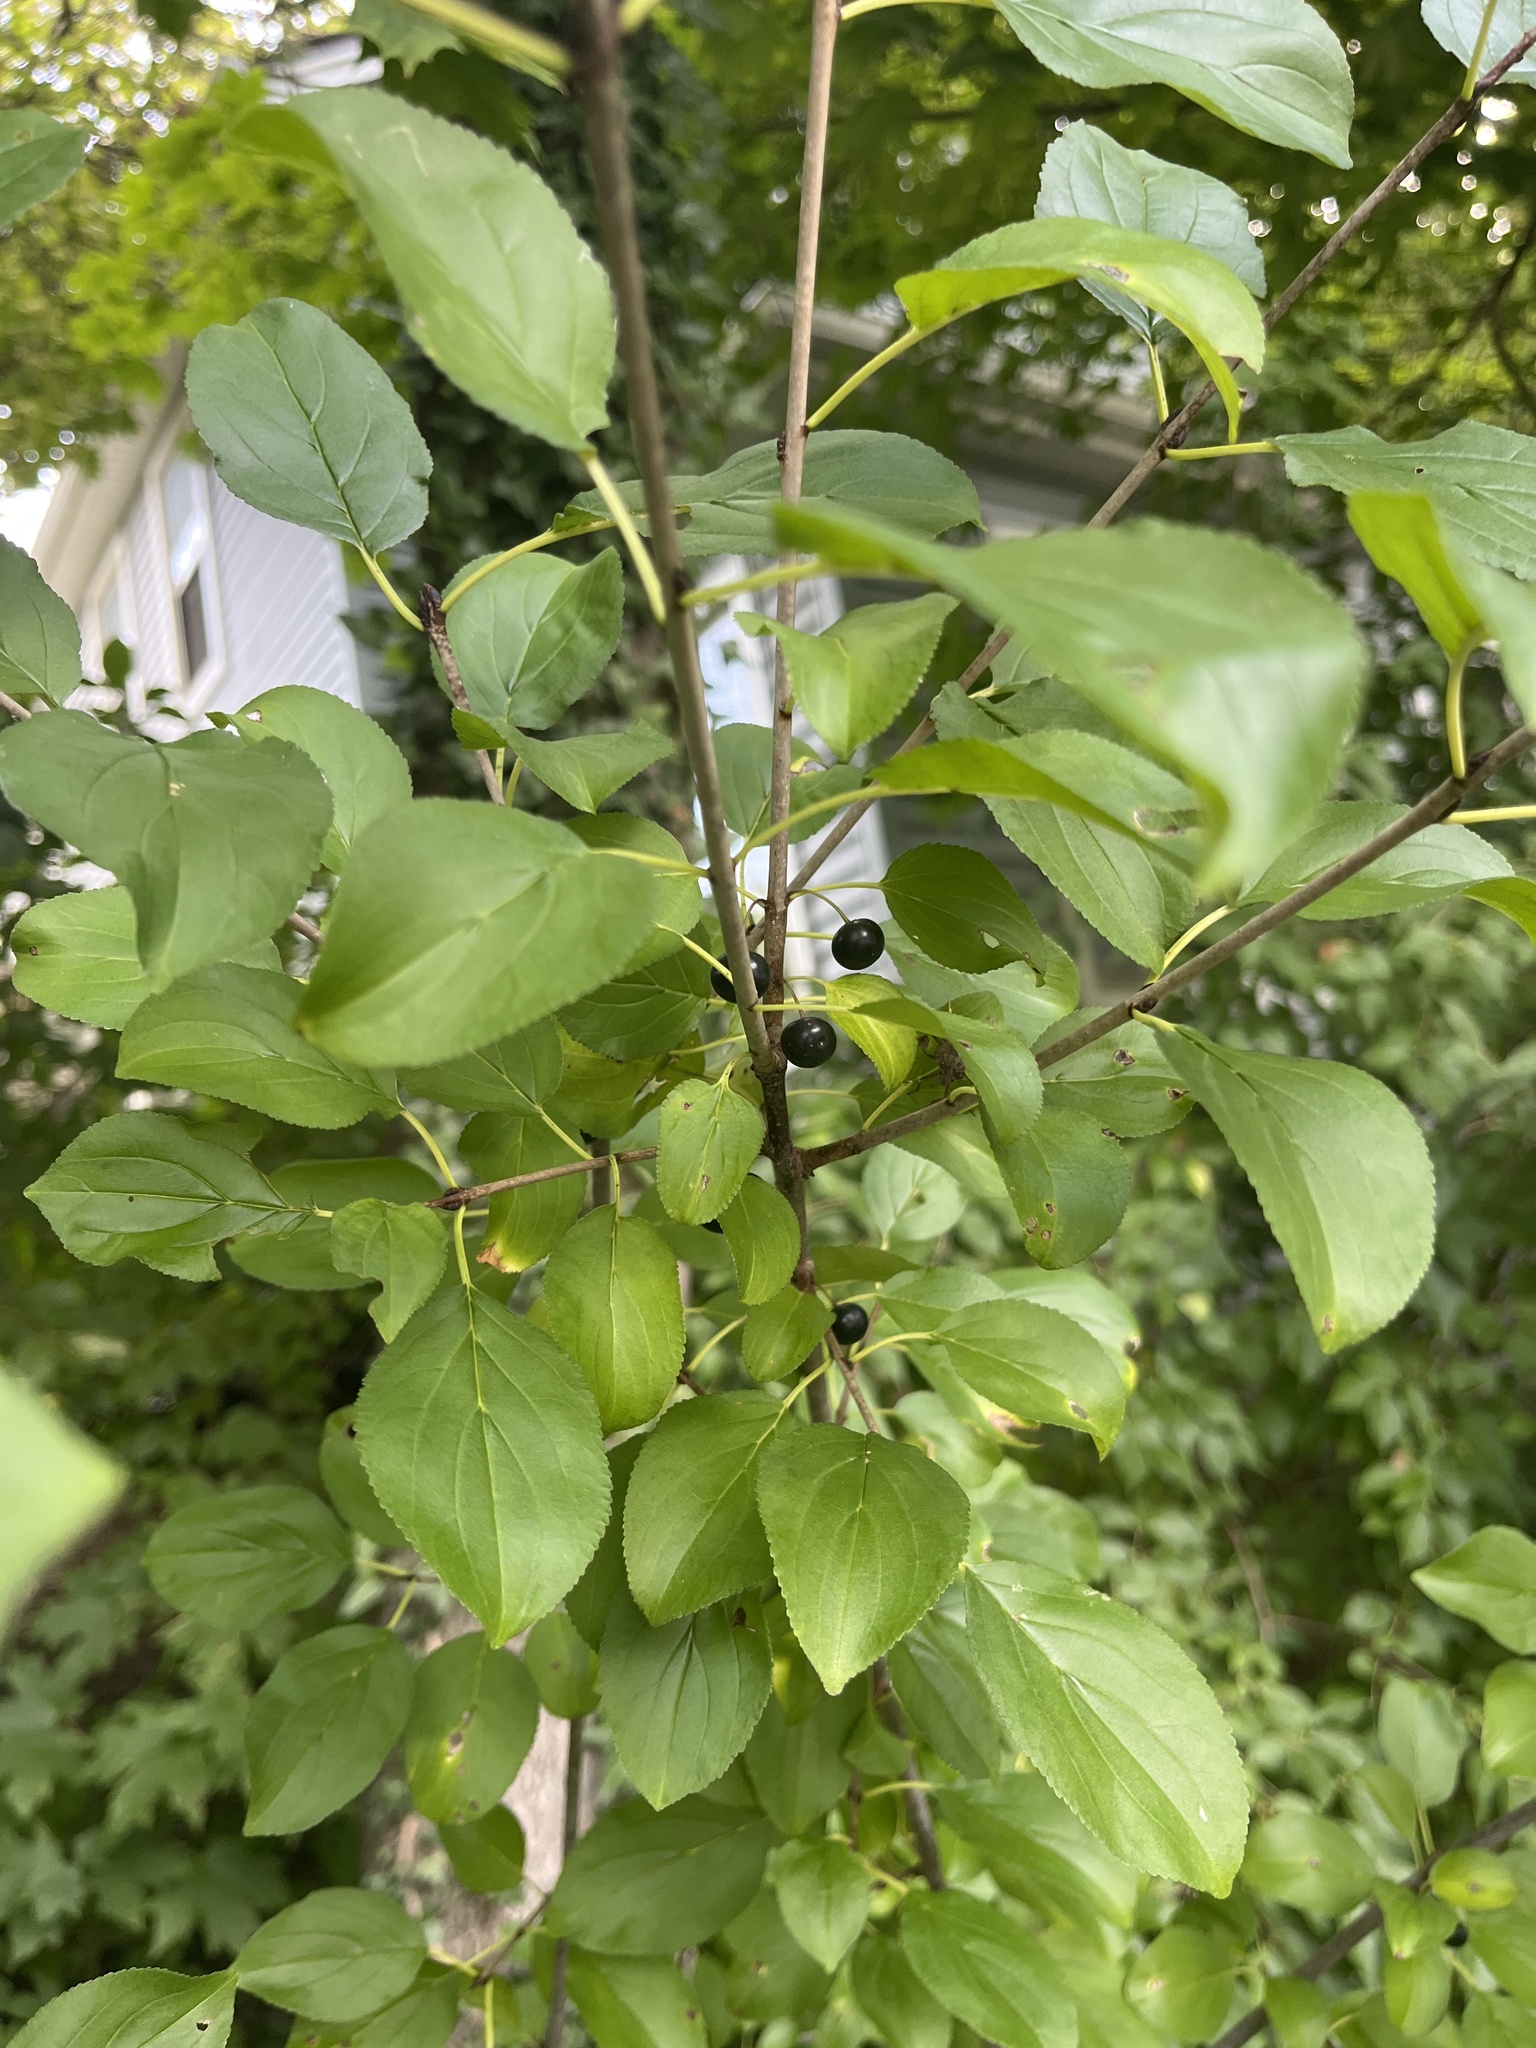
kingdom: Plantae
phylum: Tracheophyta
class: Magnoliopsida
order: Rosales
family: Rhamnaceae
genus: Rhamnus
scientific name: Rhamnus cathartica
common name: Common buckthorn
